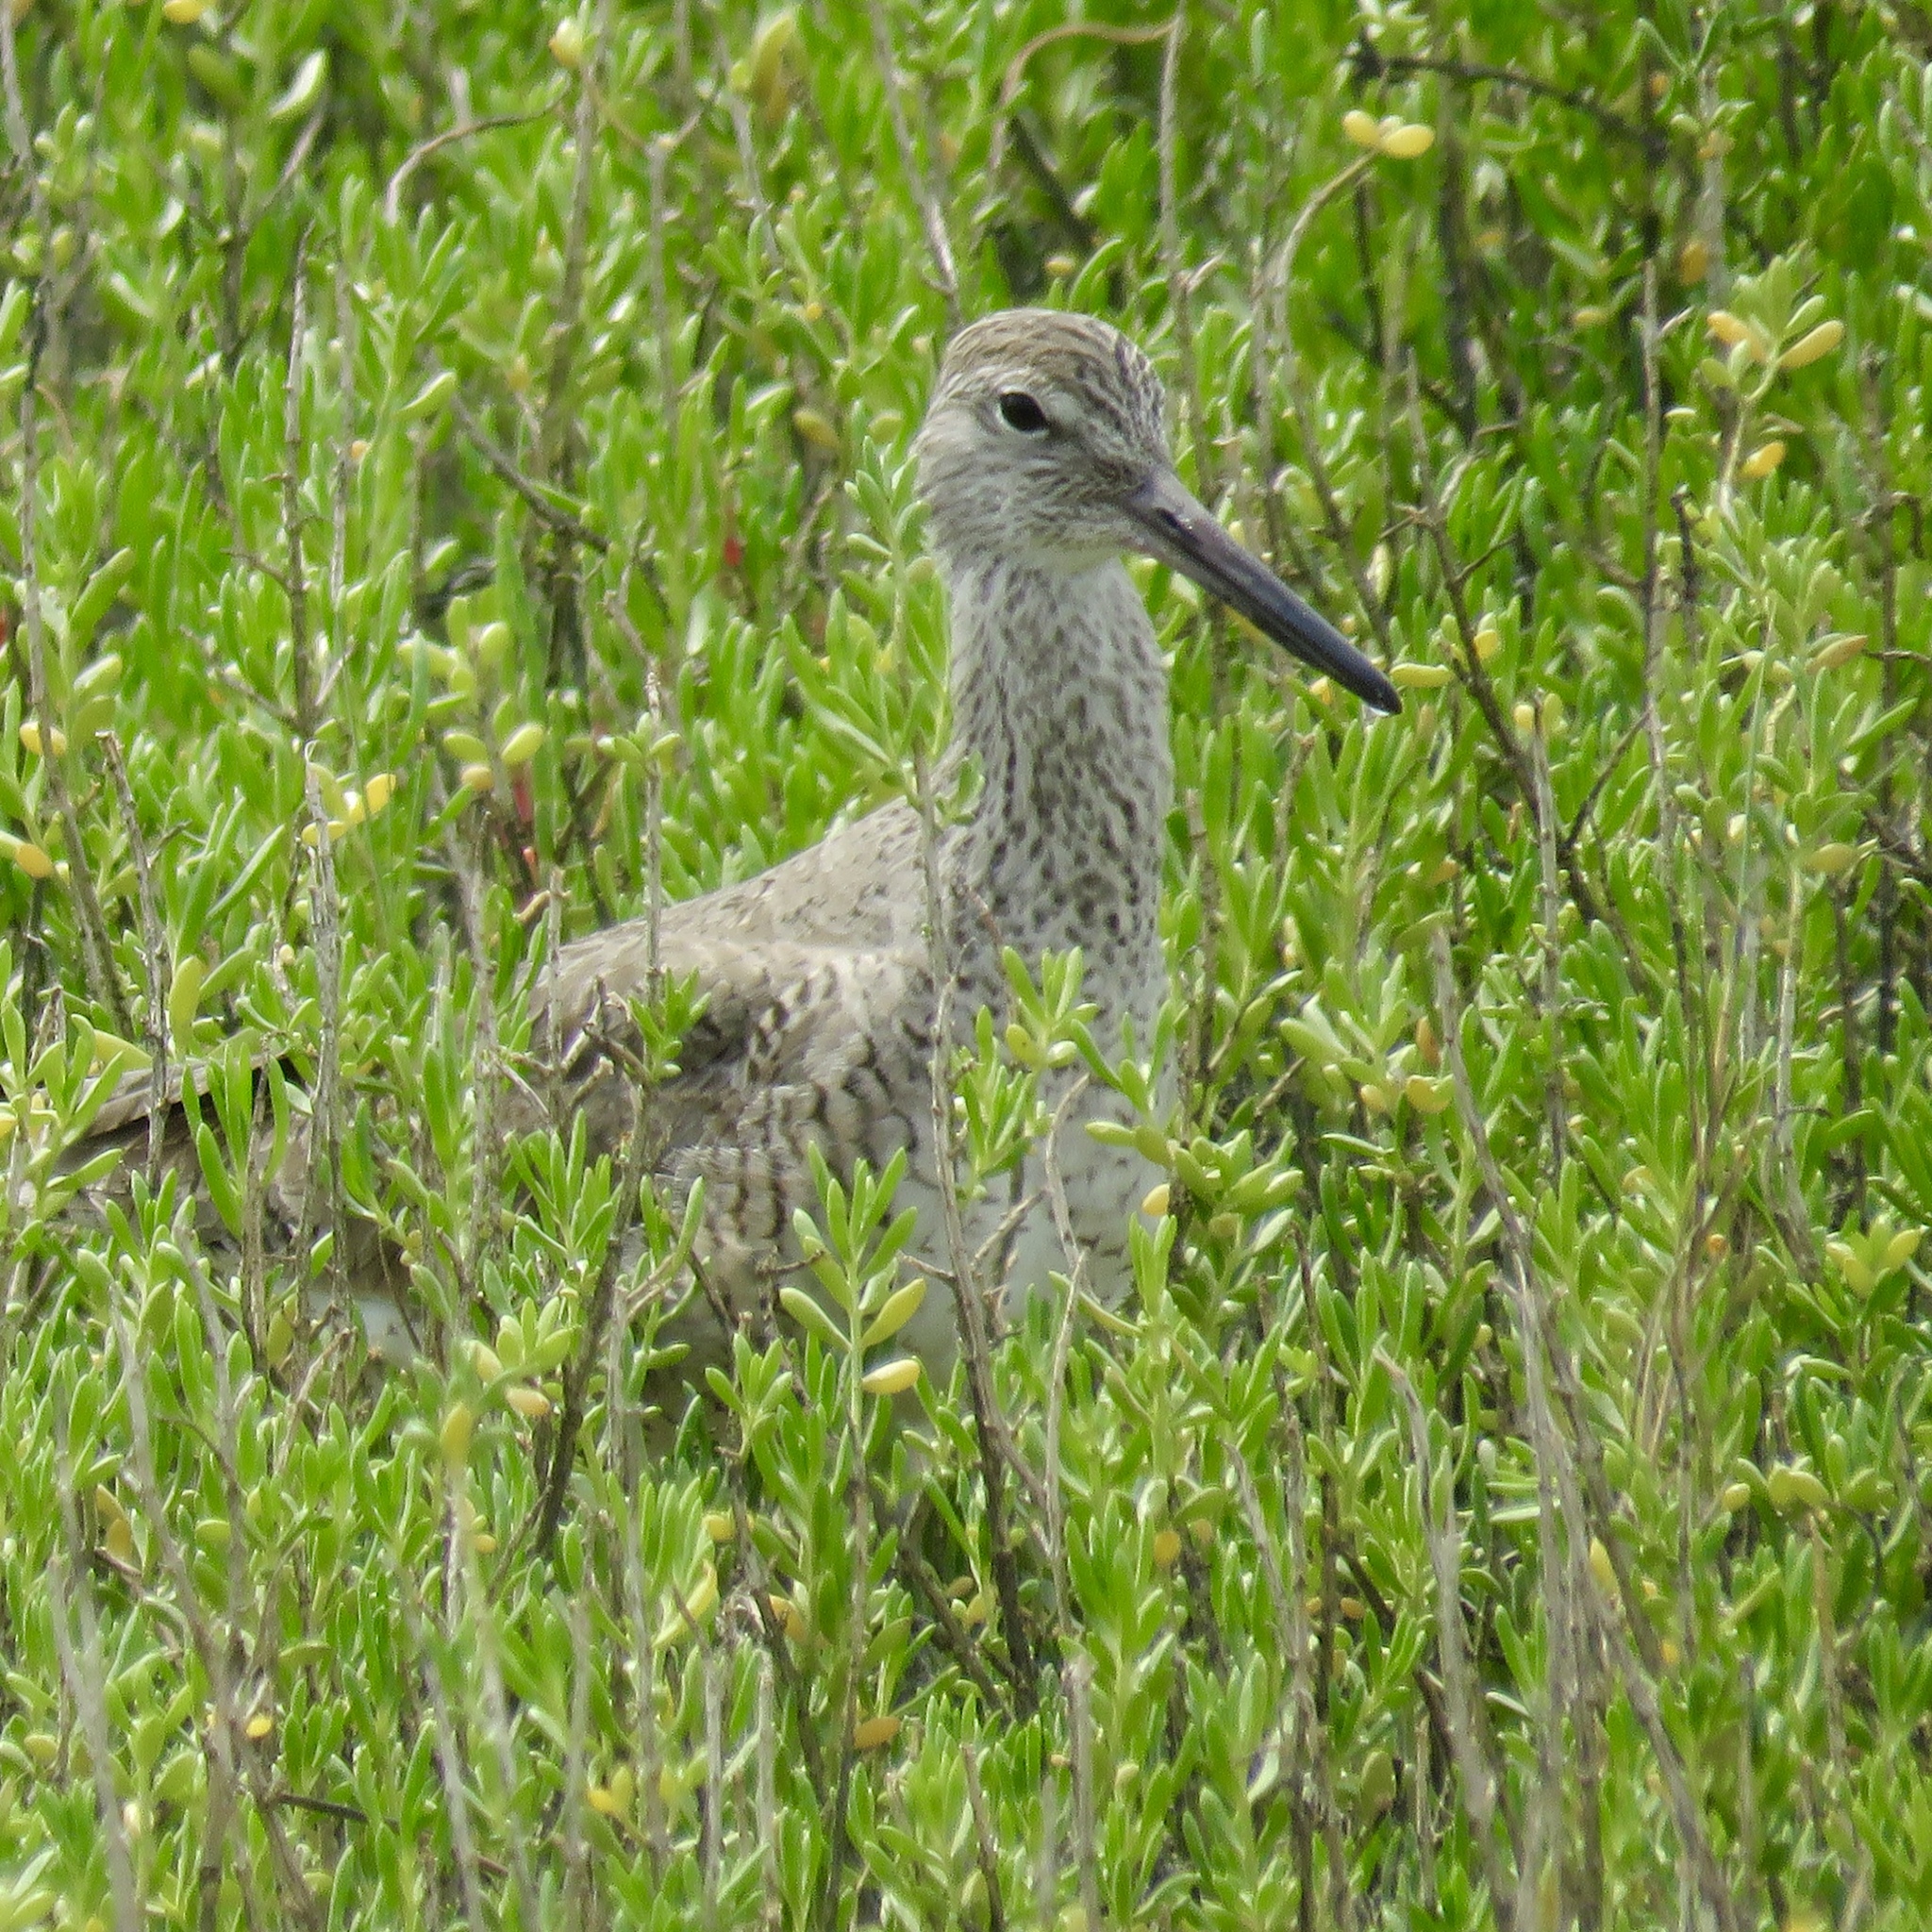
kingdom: Animalia
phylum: Chordata
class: Aves
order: Charadriiformes
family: Scolopacidae
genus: Tringa
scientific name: Tringa semipalmata
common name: Willet
